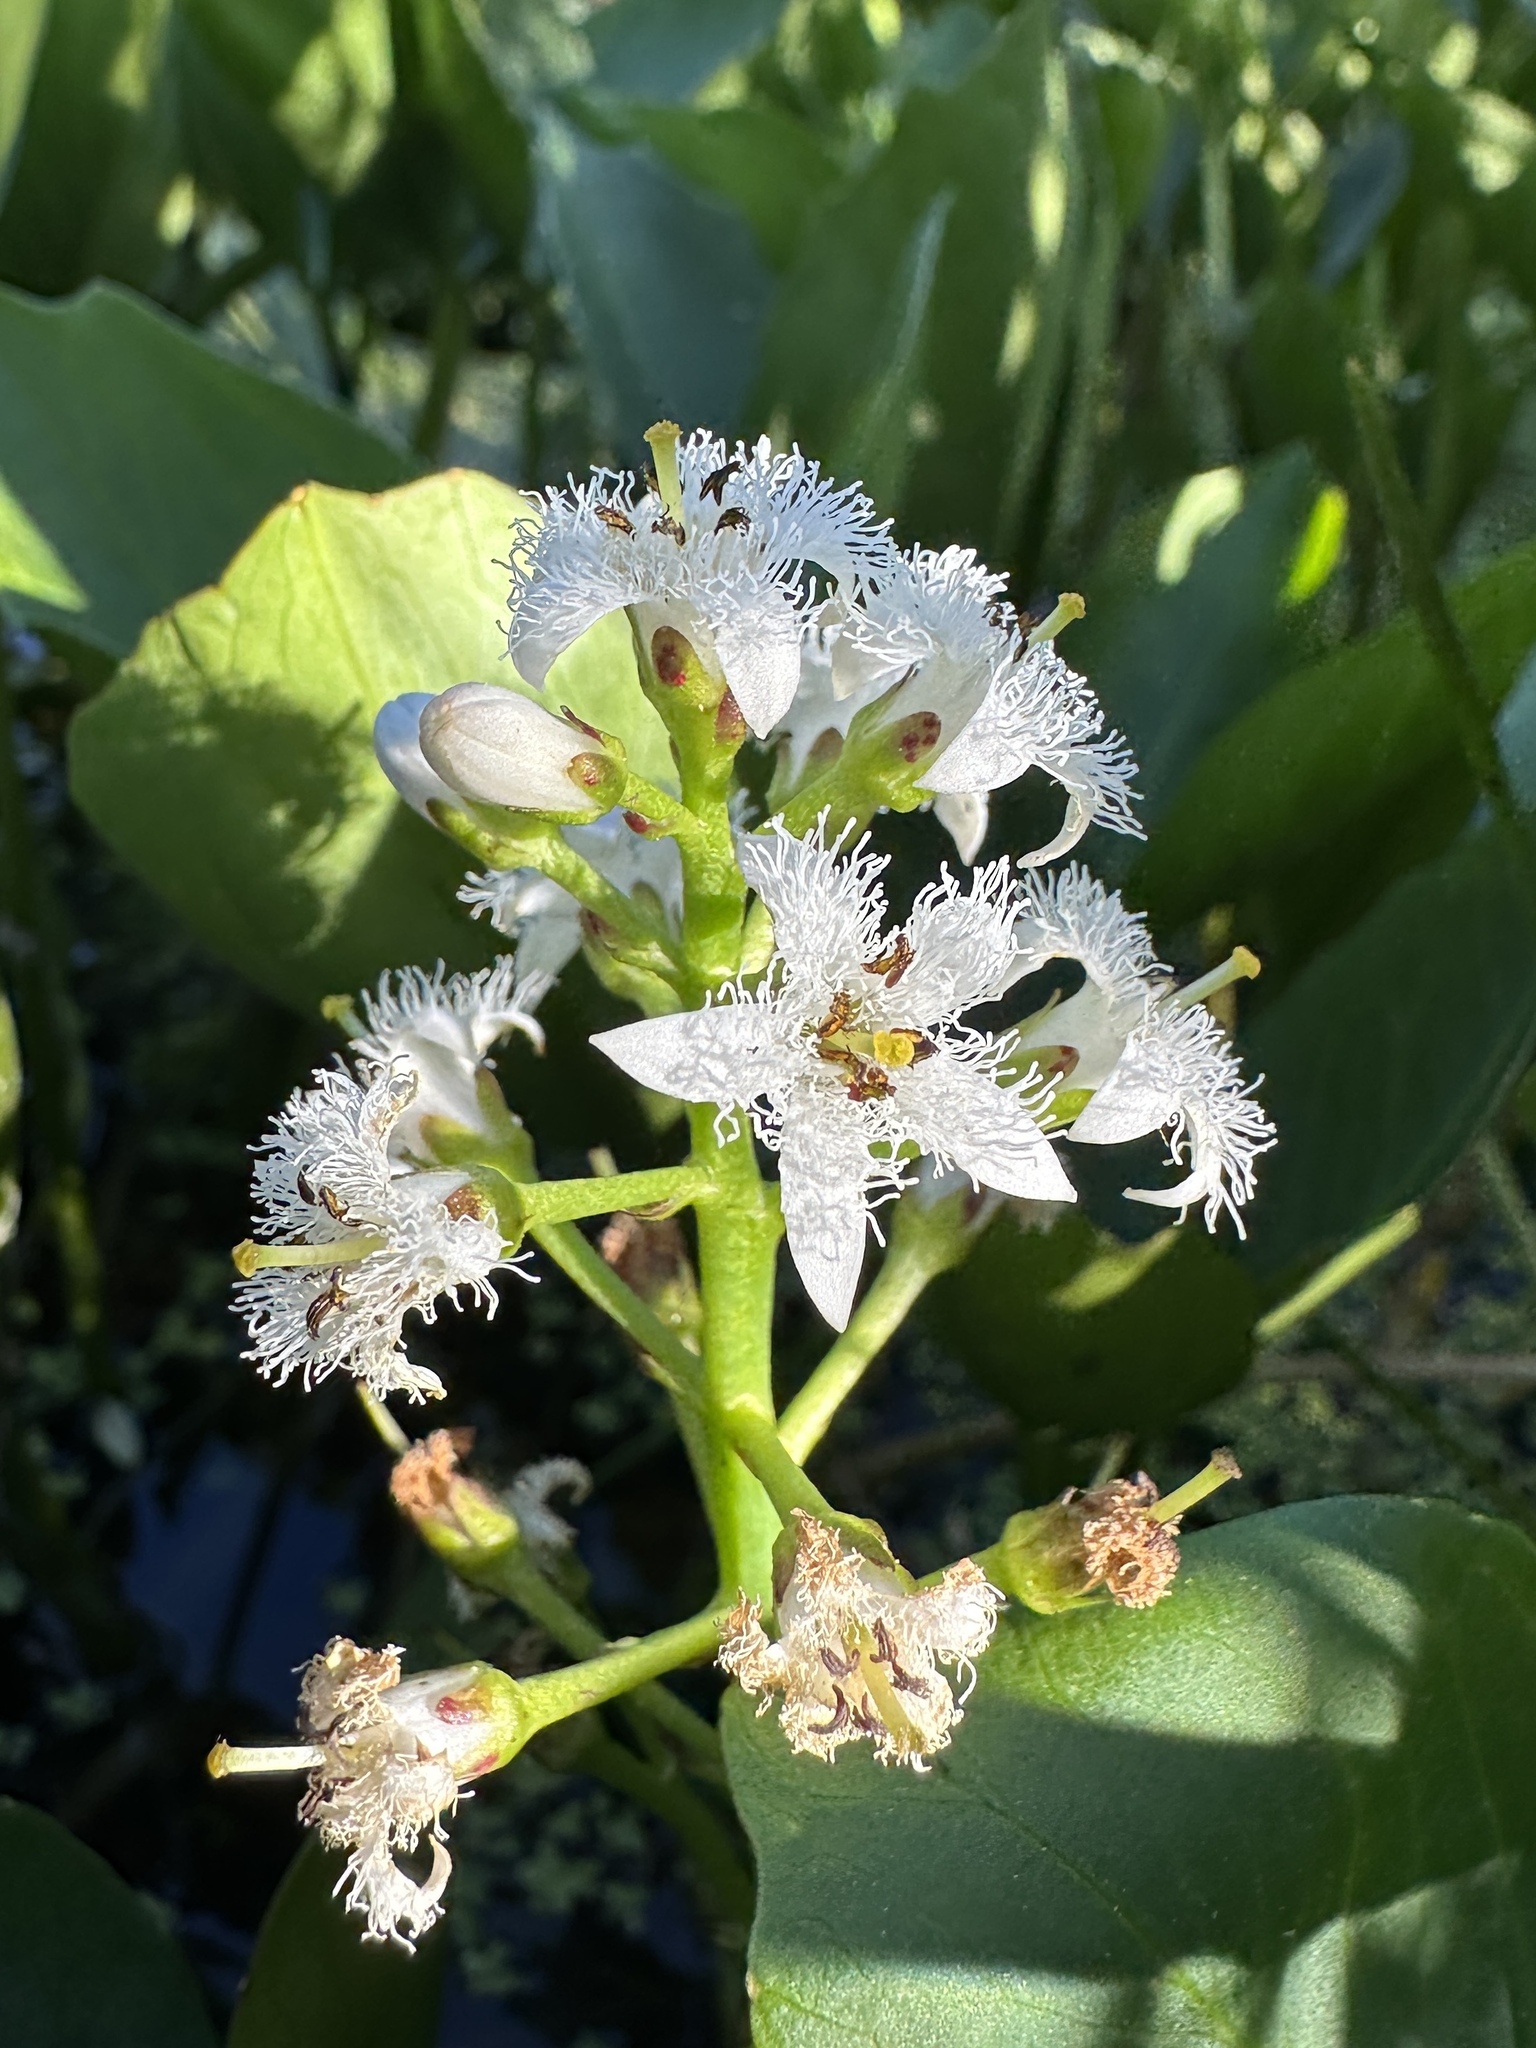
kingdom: Plantae
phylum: Tracheophyta
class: Magnoliopsida
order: Asterales
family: Menyanthaceae
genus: Menyanthes
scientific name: Menyanthes trifoliata
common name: Bogbean
